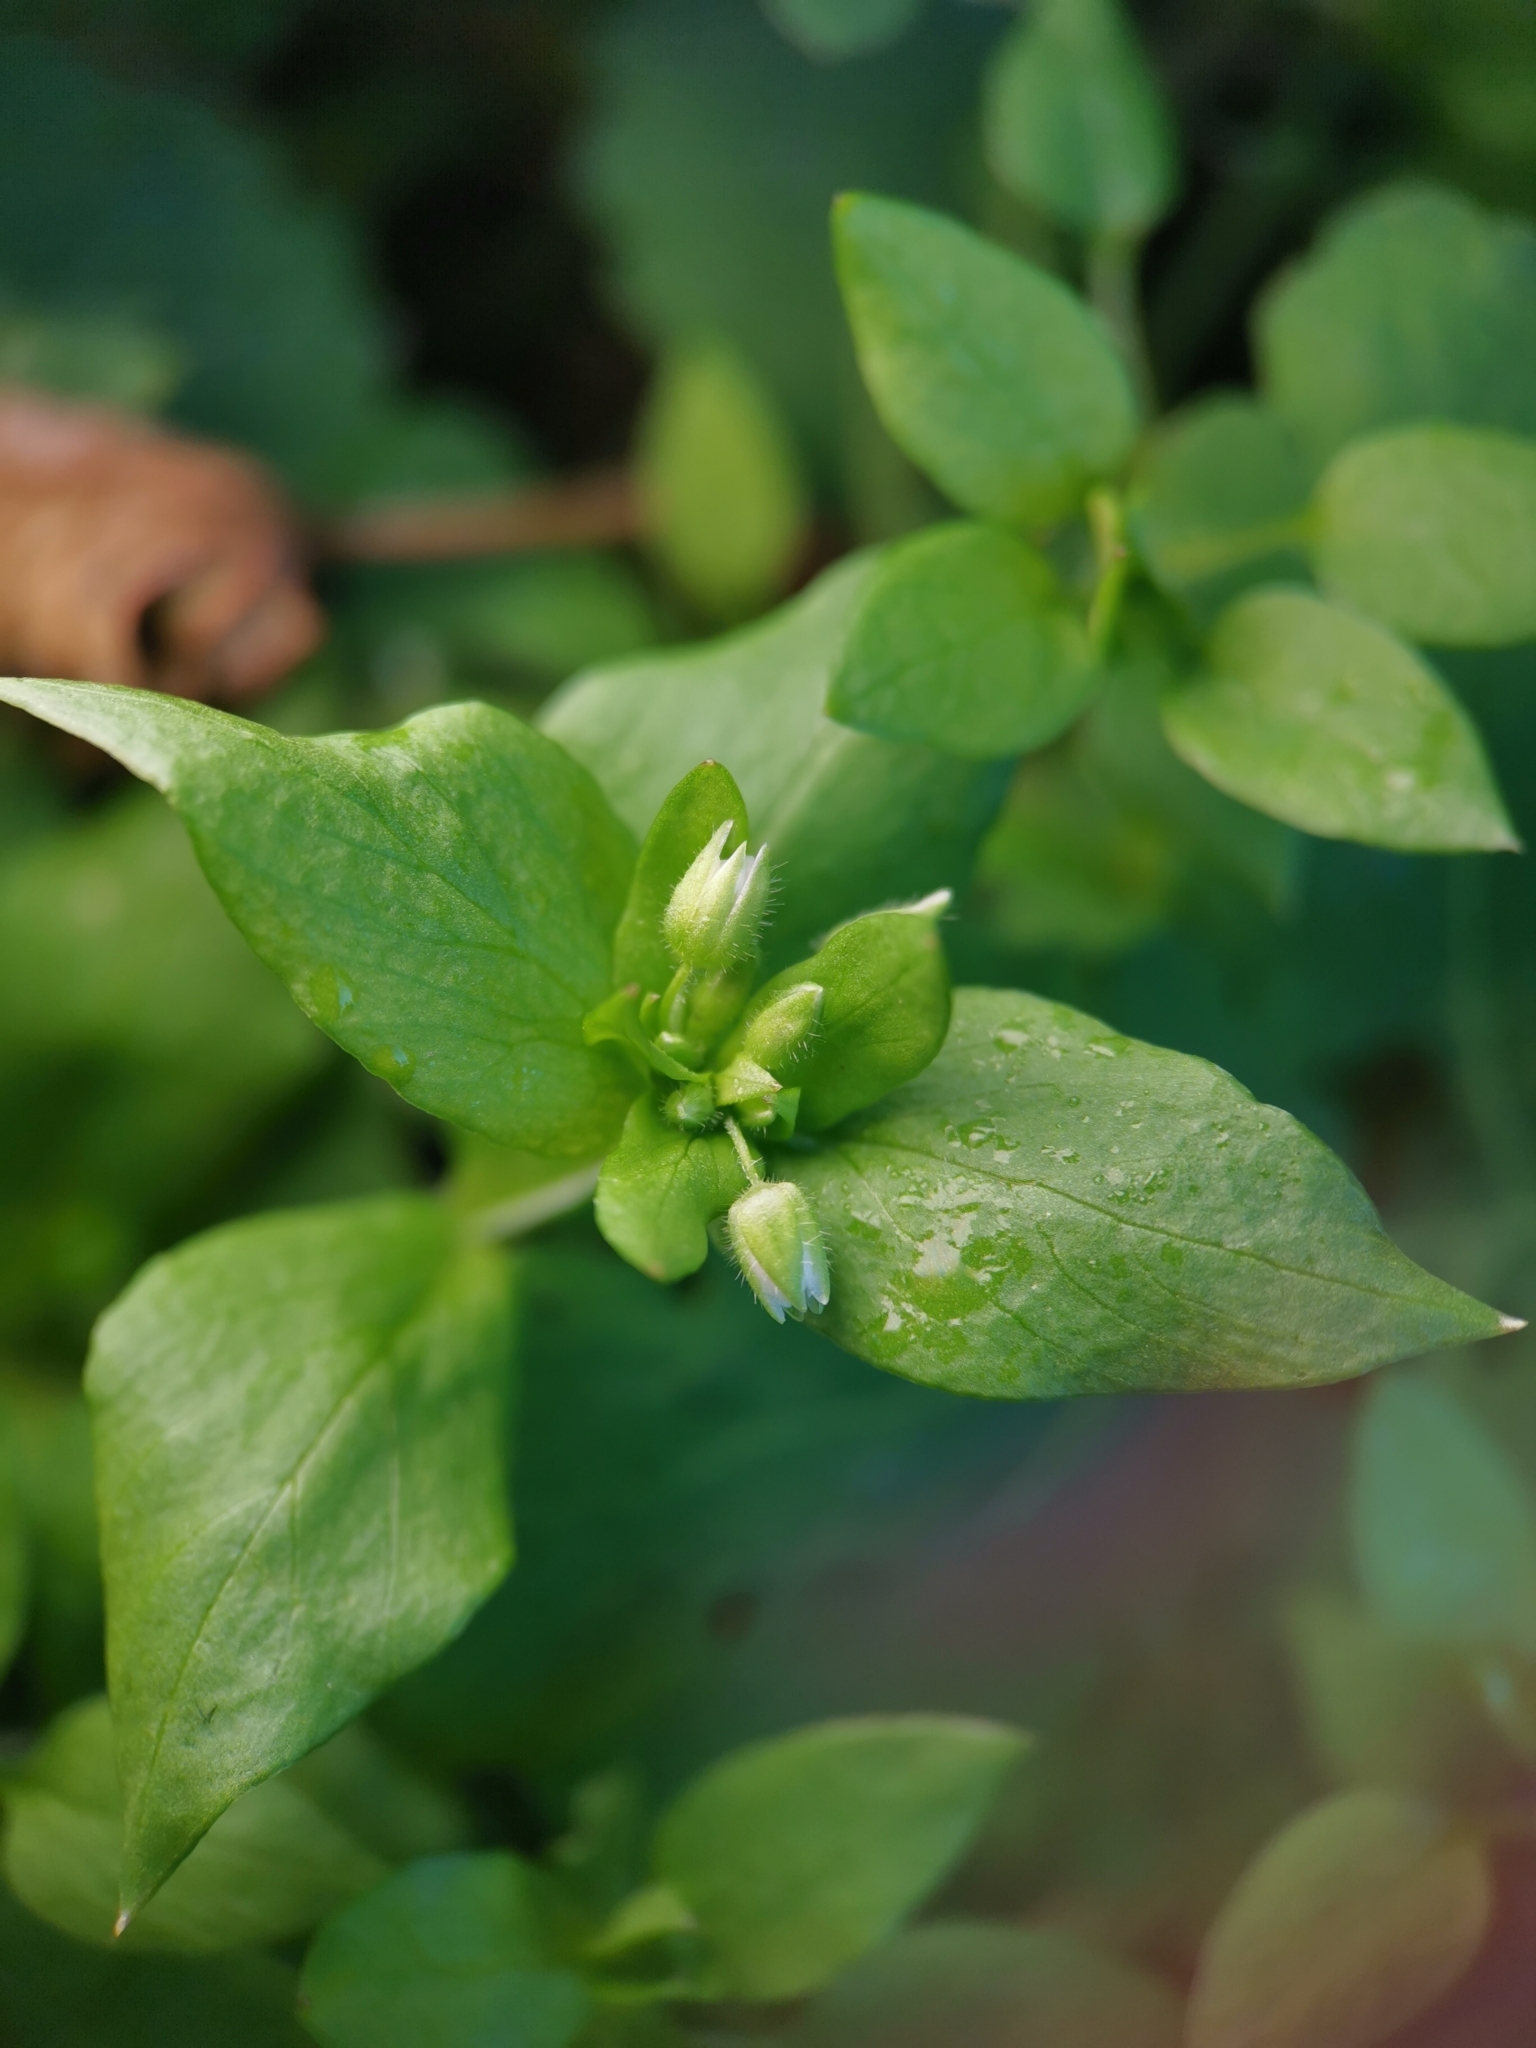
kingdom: Plantae
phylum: Tracheophyta
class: Magnoliopsida
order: Caryophyllales
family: Caryophyllaceae
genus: Stellaria
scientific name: Stellaria media
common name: Common chickweed
